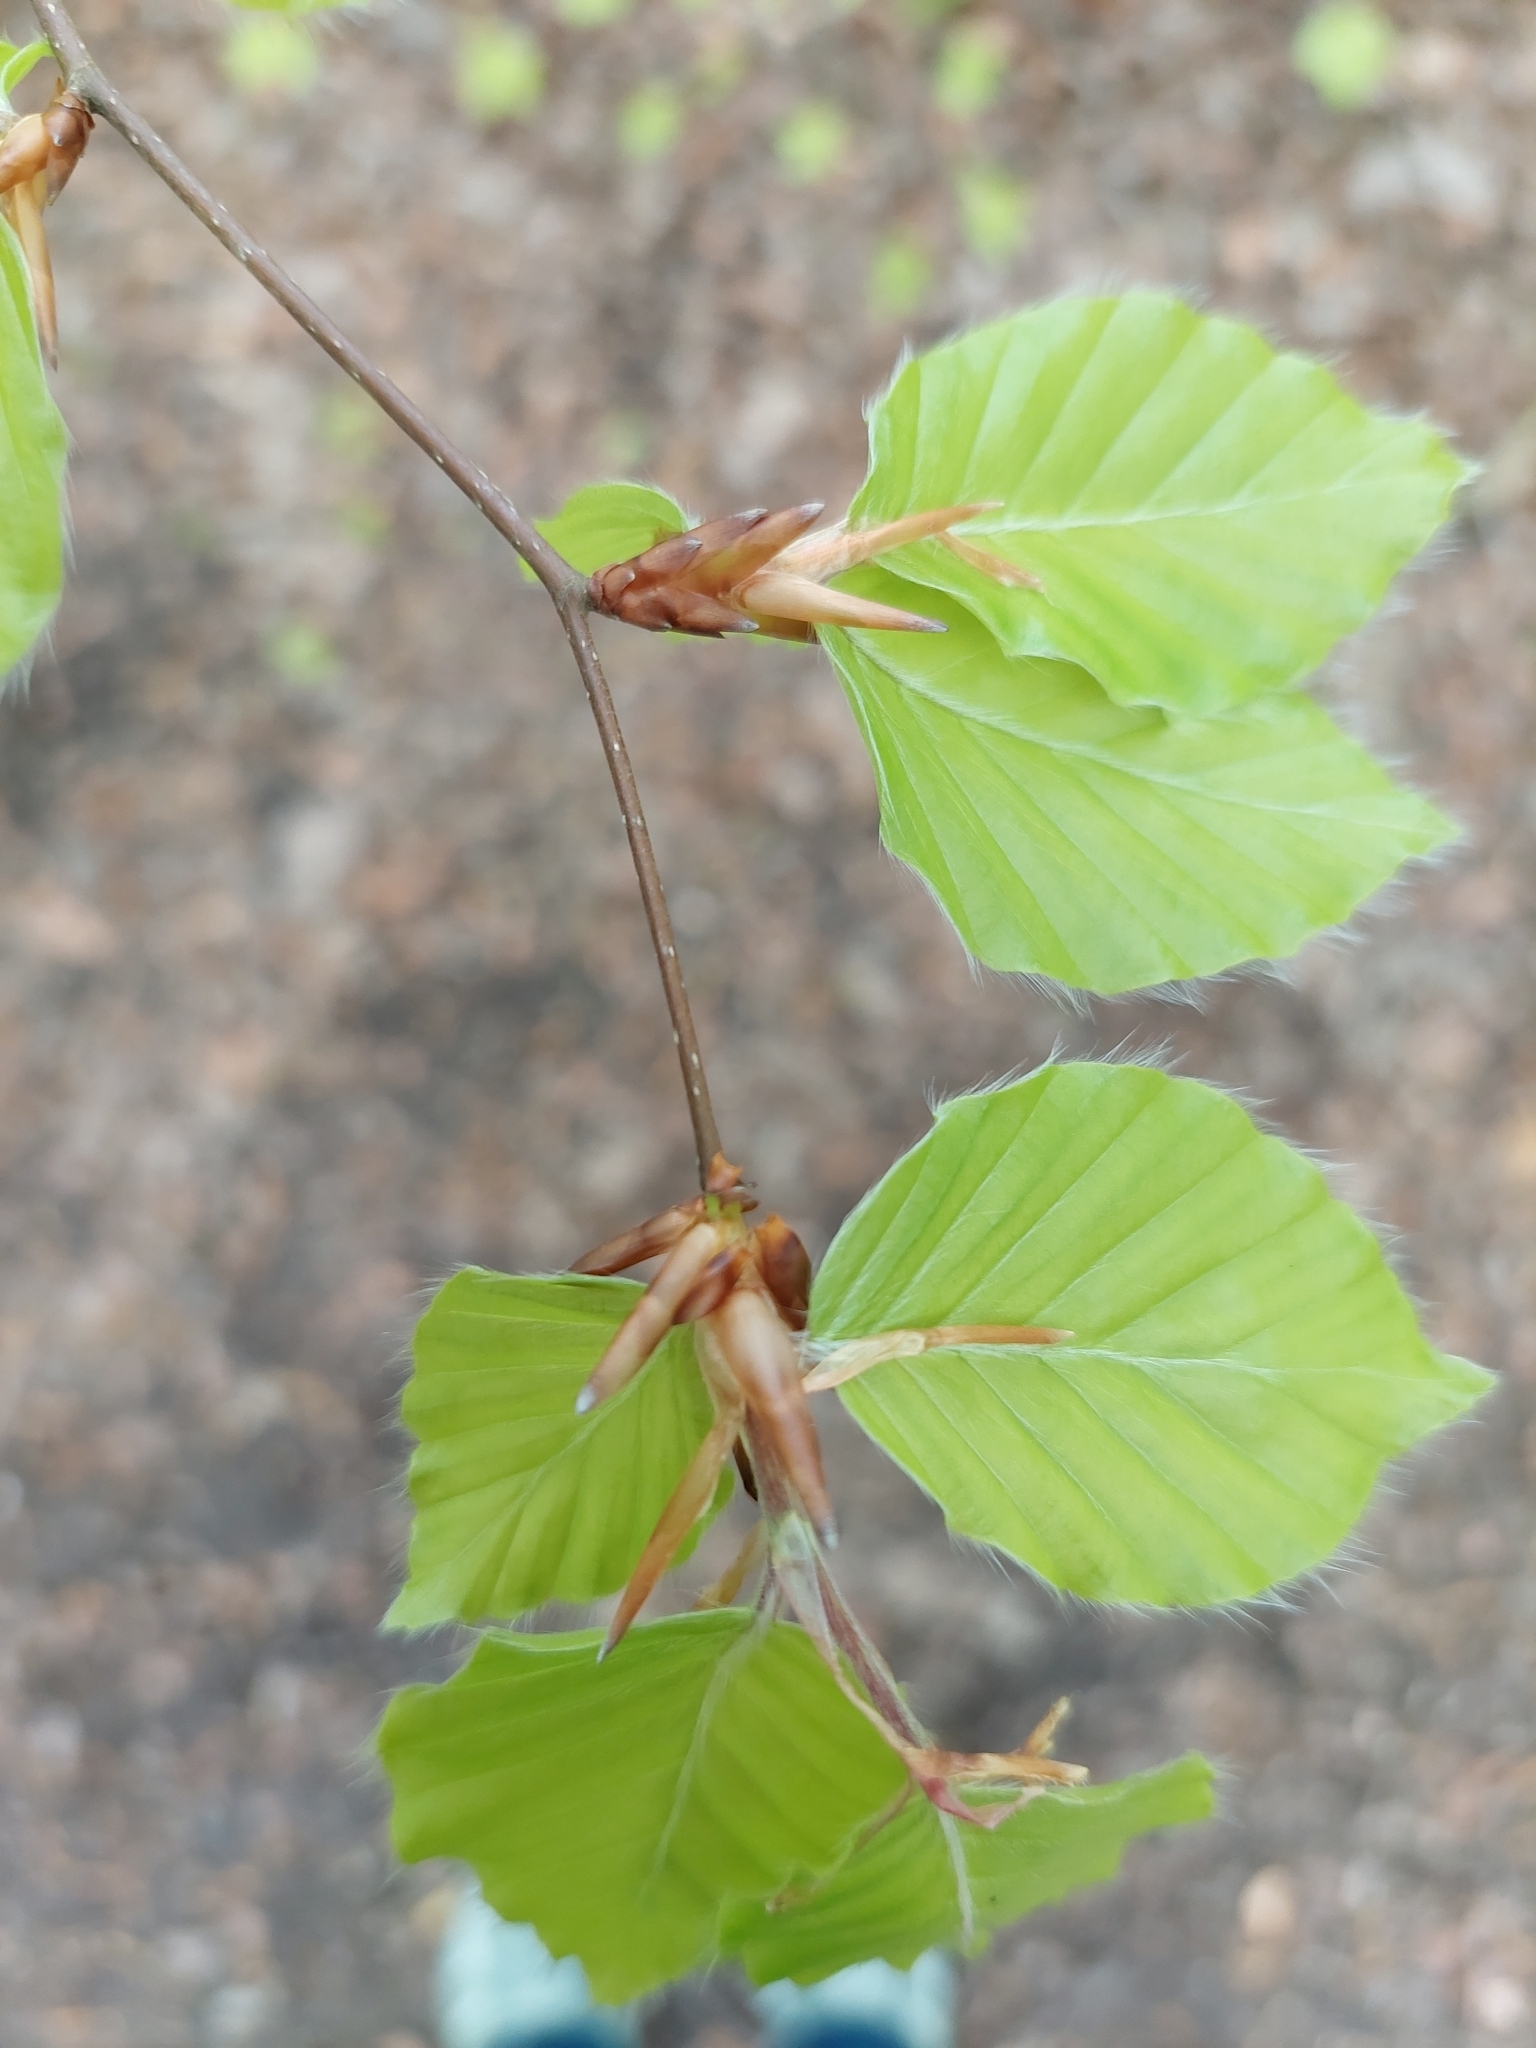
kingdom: Plantae
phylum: Tracheophyta
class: Magnoliopsida
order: Fagales
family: Fagaceae
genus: Fagus
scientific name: Fagus sylvatica
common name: Beech
